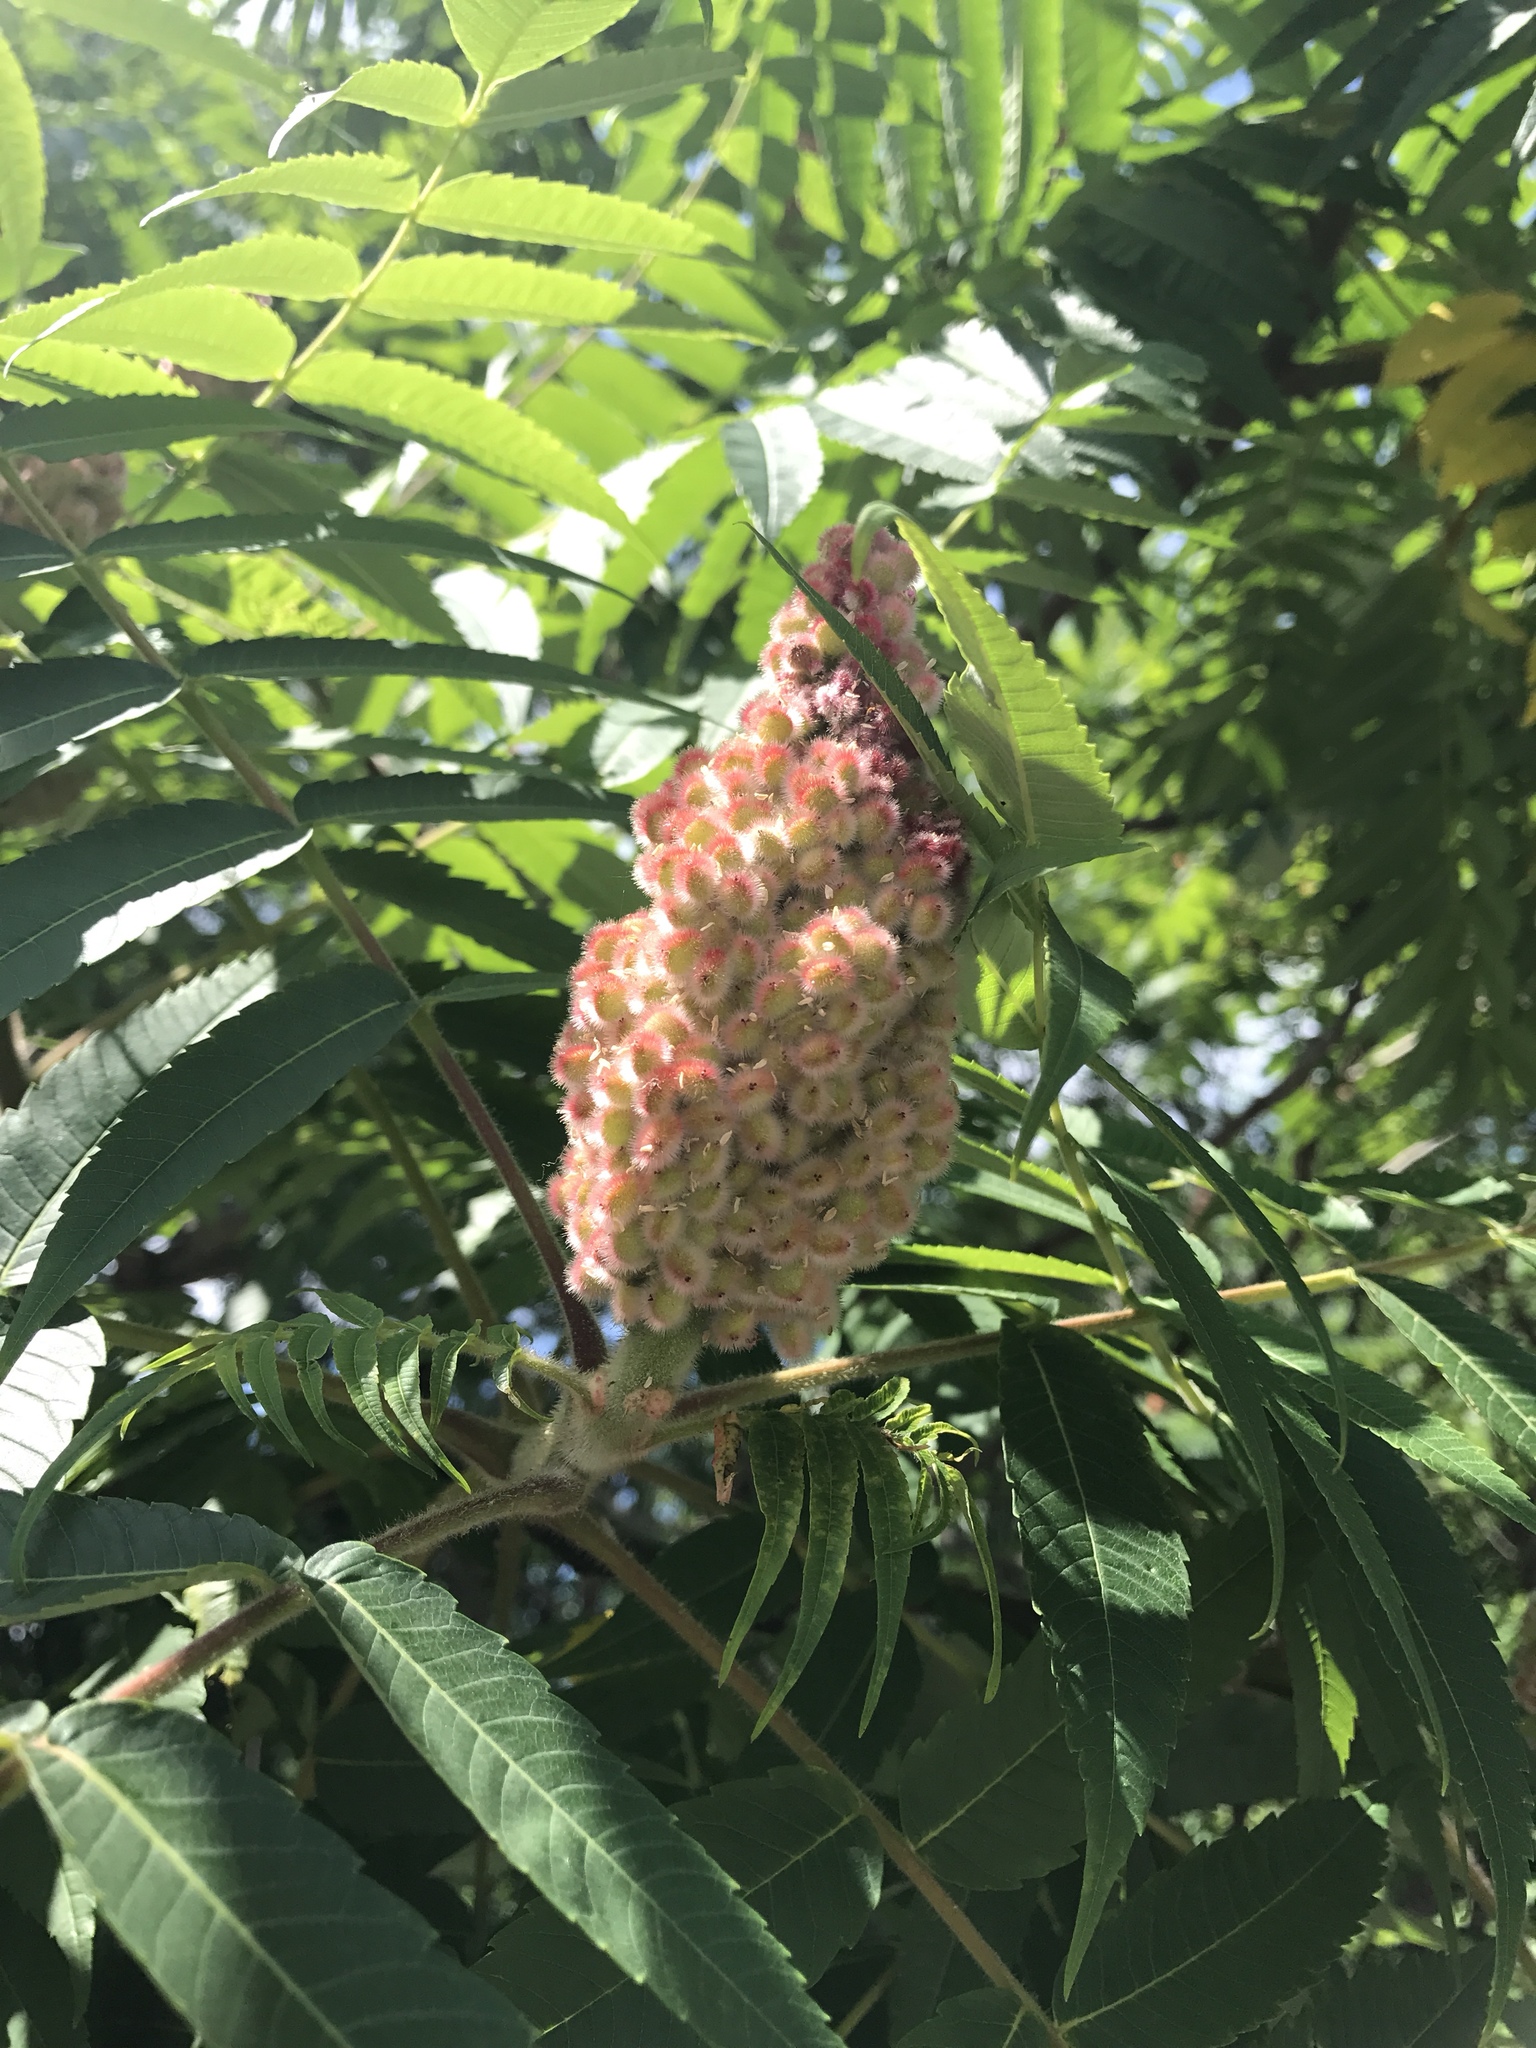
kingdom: Plantae
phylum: Tracheophyta
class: Magnoliopsida
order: Sapindales
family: Anacardiaceae
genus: Rhus
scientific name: Rhus typhina
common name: Staghorn sumac
